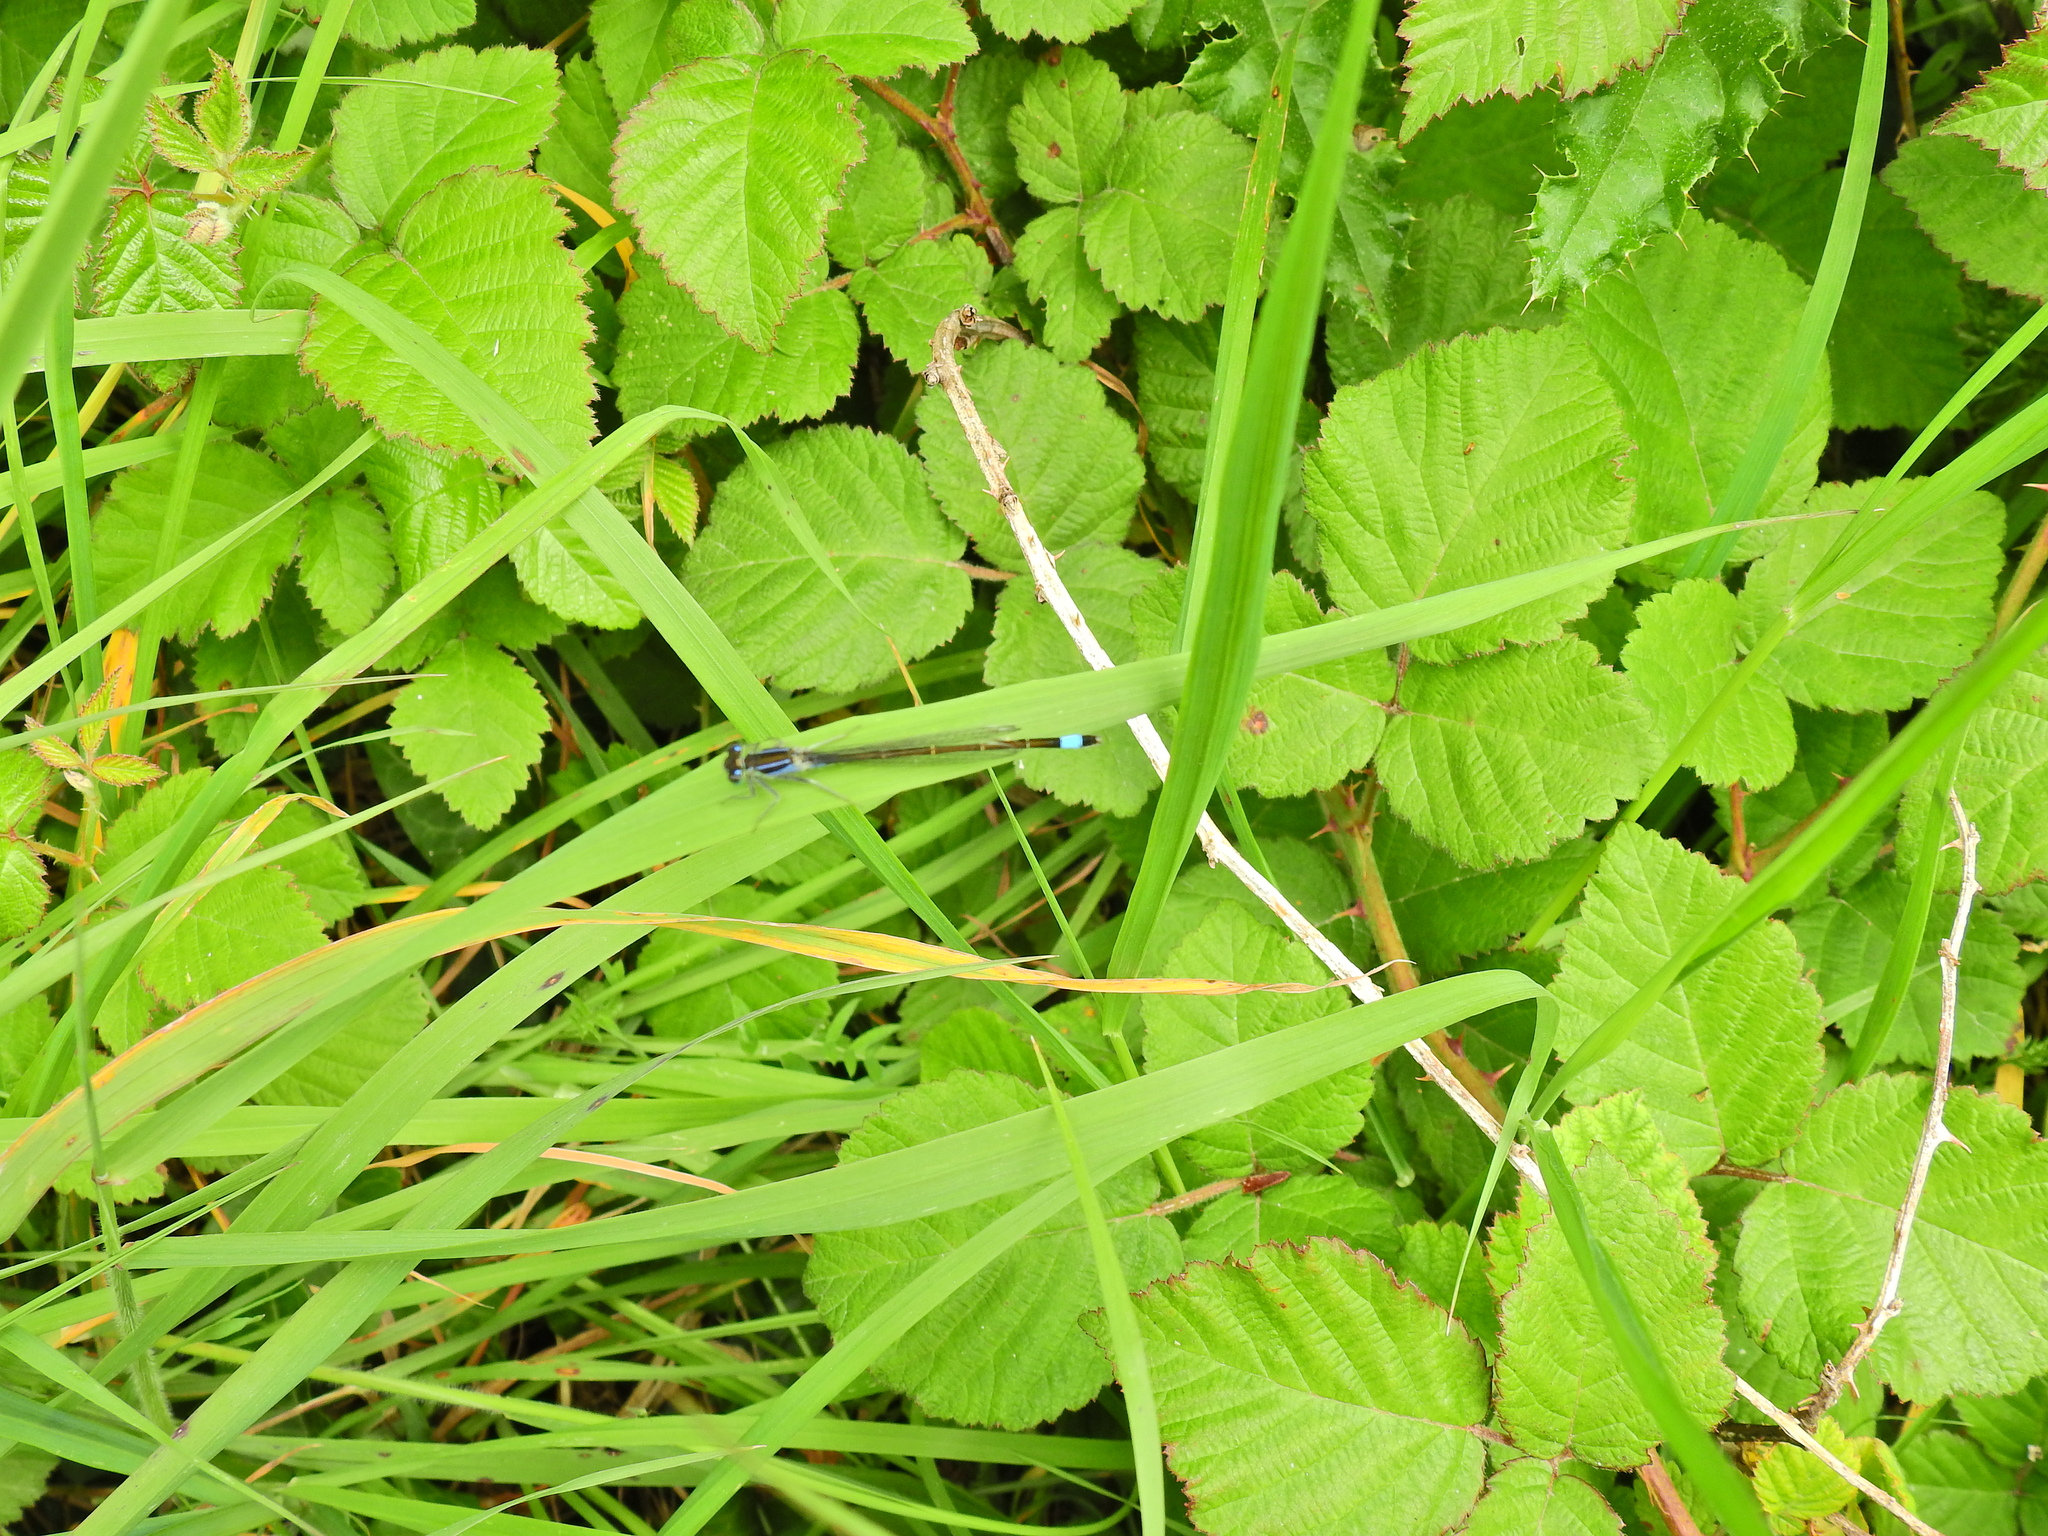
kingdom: Animalia
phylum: Arthropoda
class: Insecta
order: Odonata
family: Coenagrionidae
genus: Ischnura
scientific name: Ischnura elegans
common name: Blue-tailed damselfly
